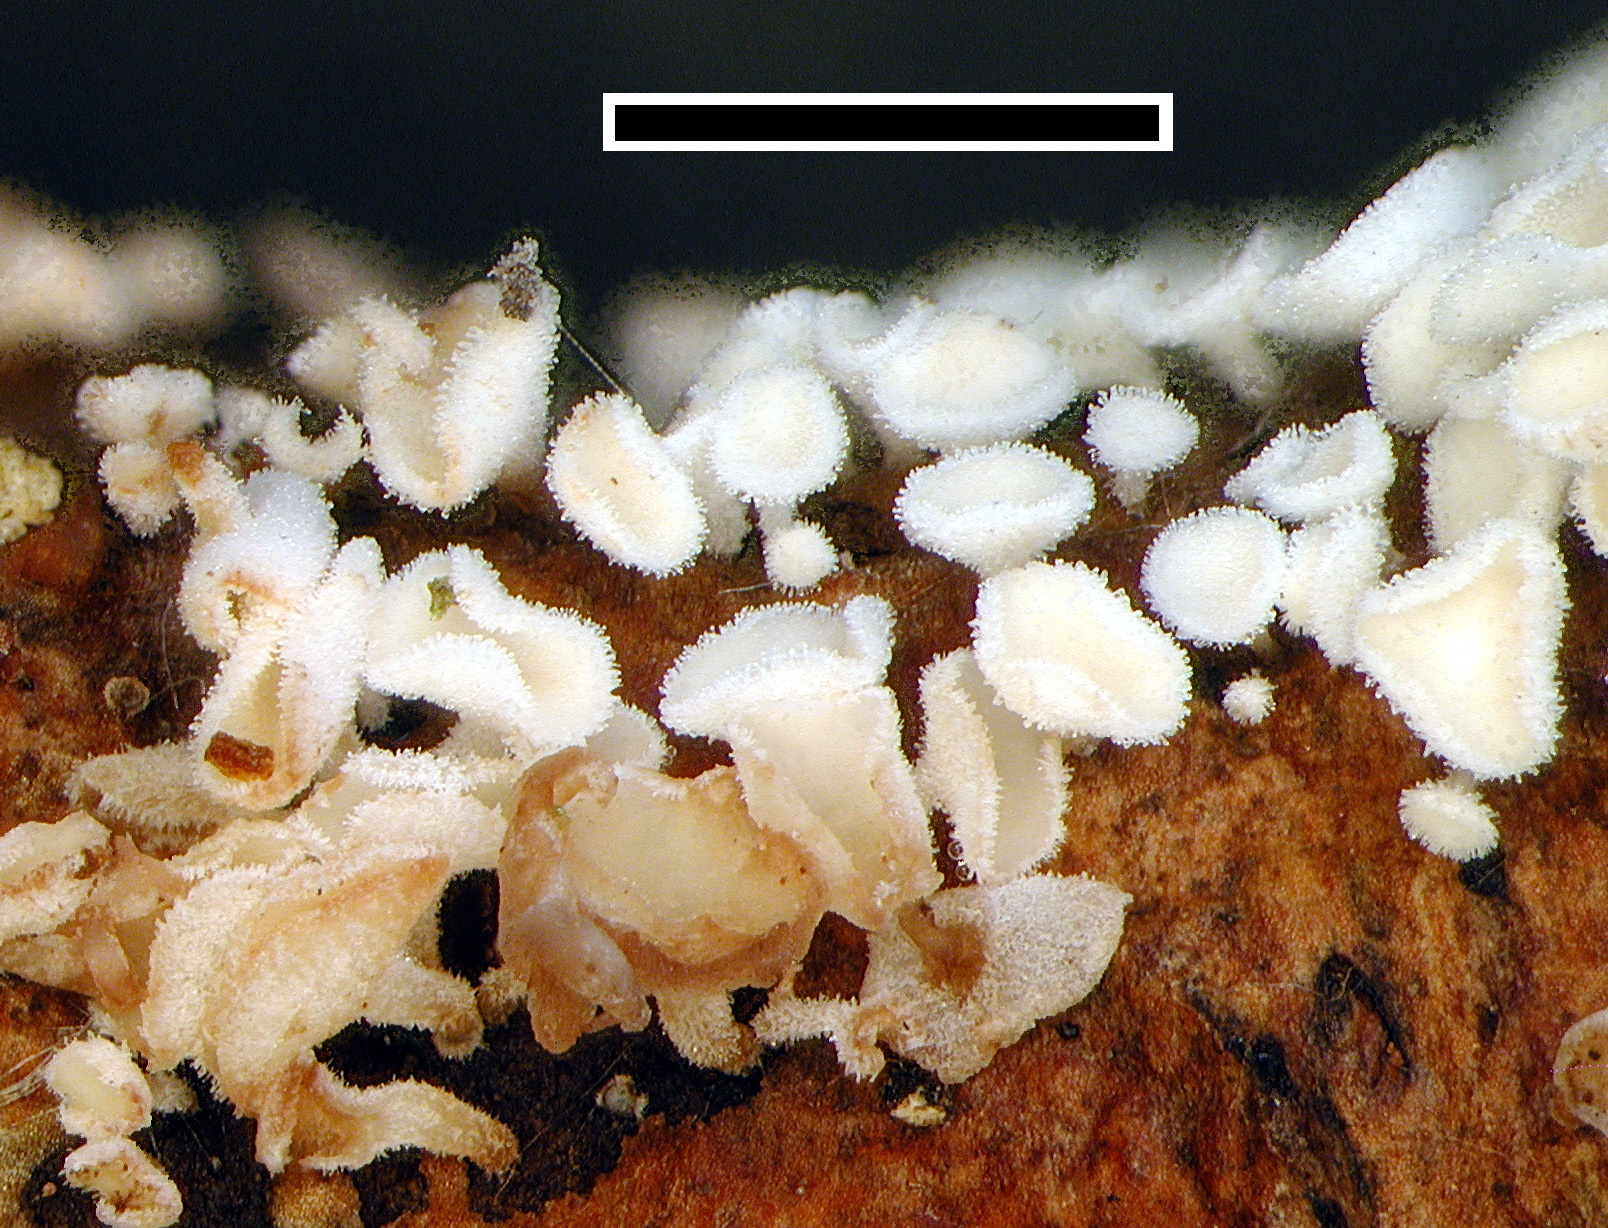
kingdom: Fungi
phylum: Ascomycota
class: Leotiomycetes
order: Helotiales
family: Lachnaceae
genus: Lachnum
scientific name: Lachnum pudibundum
